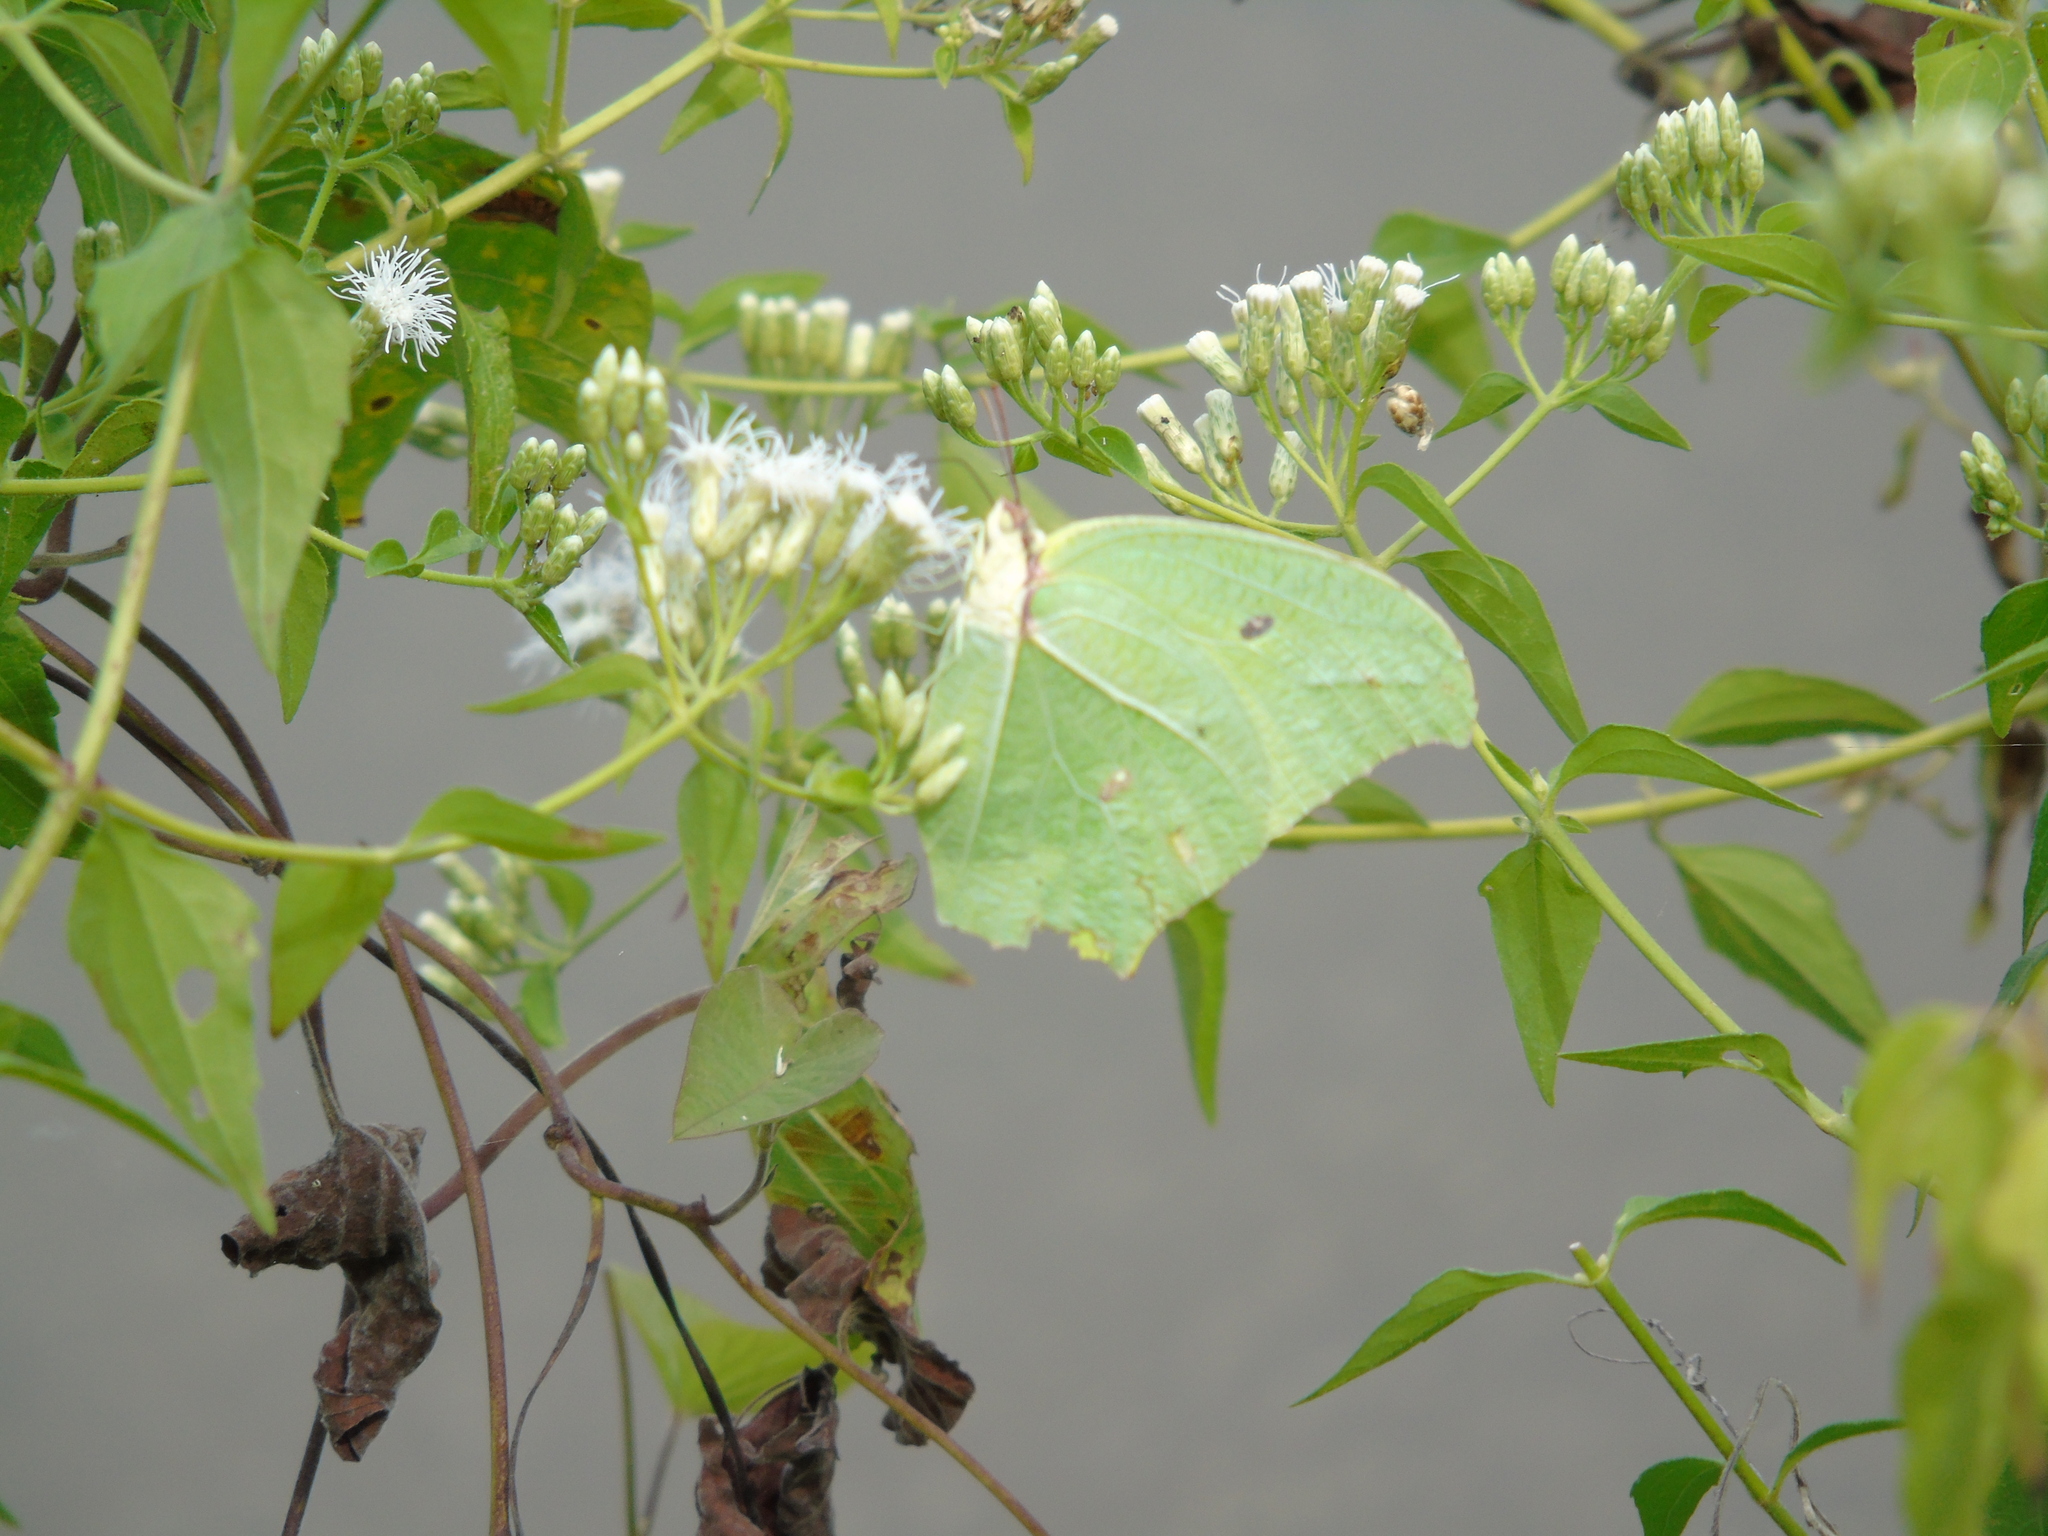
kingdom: Animalia
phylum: Arthropoda
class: Insecta
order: Lepidoptera
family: Pieridae
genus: Anteos
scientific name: Anteos maerula
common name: Angled sulphur
